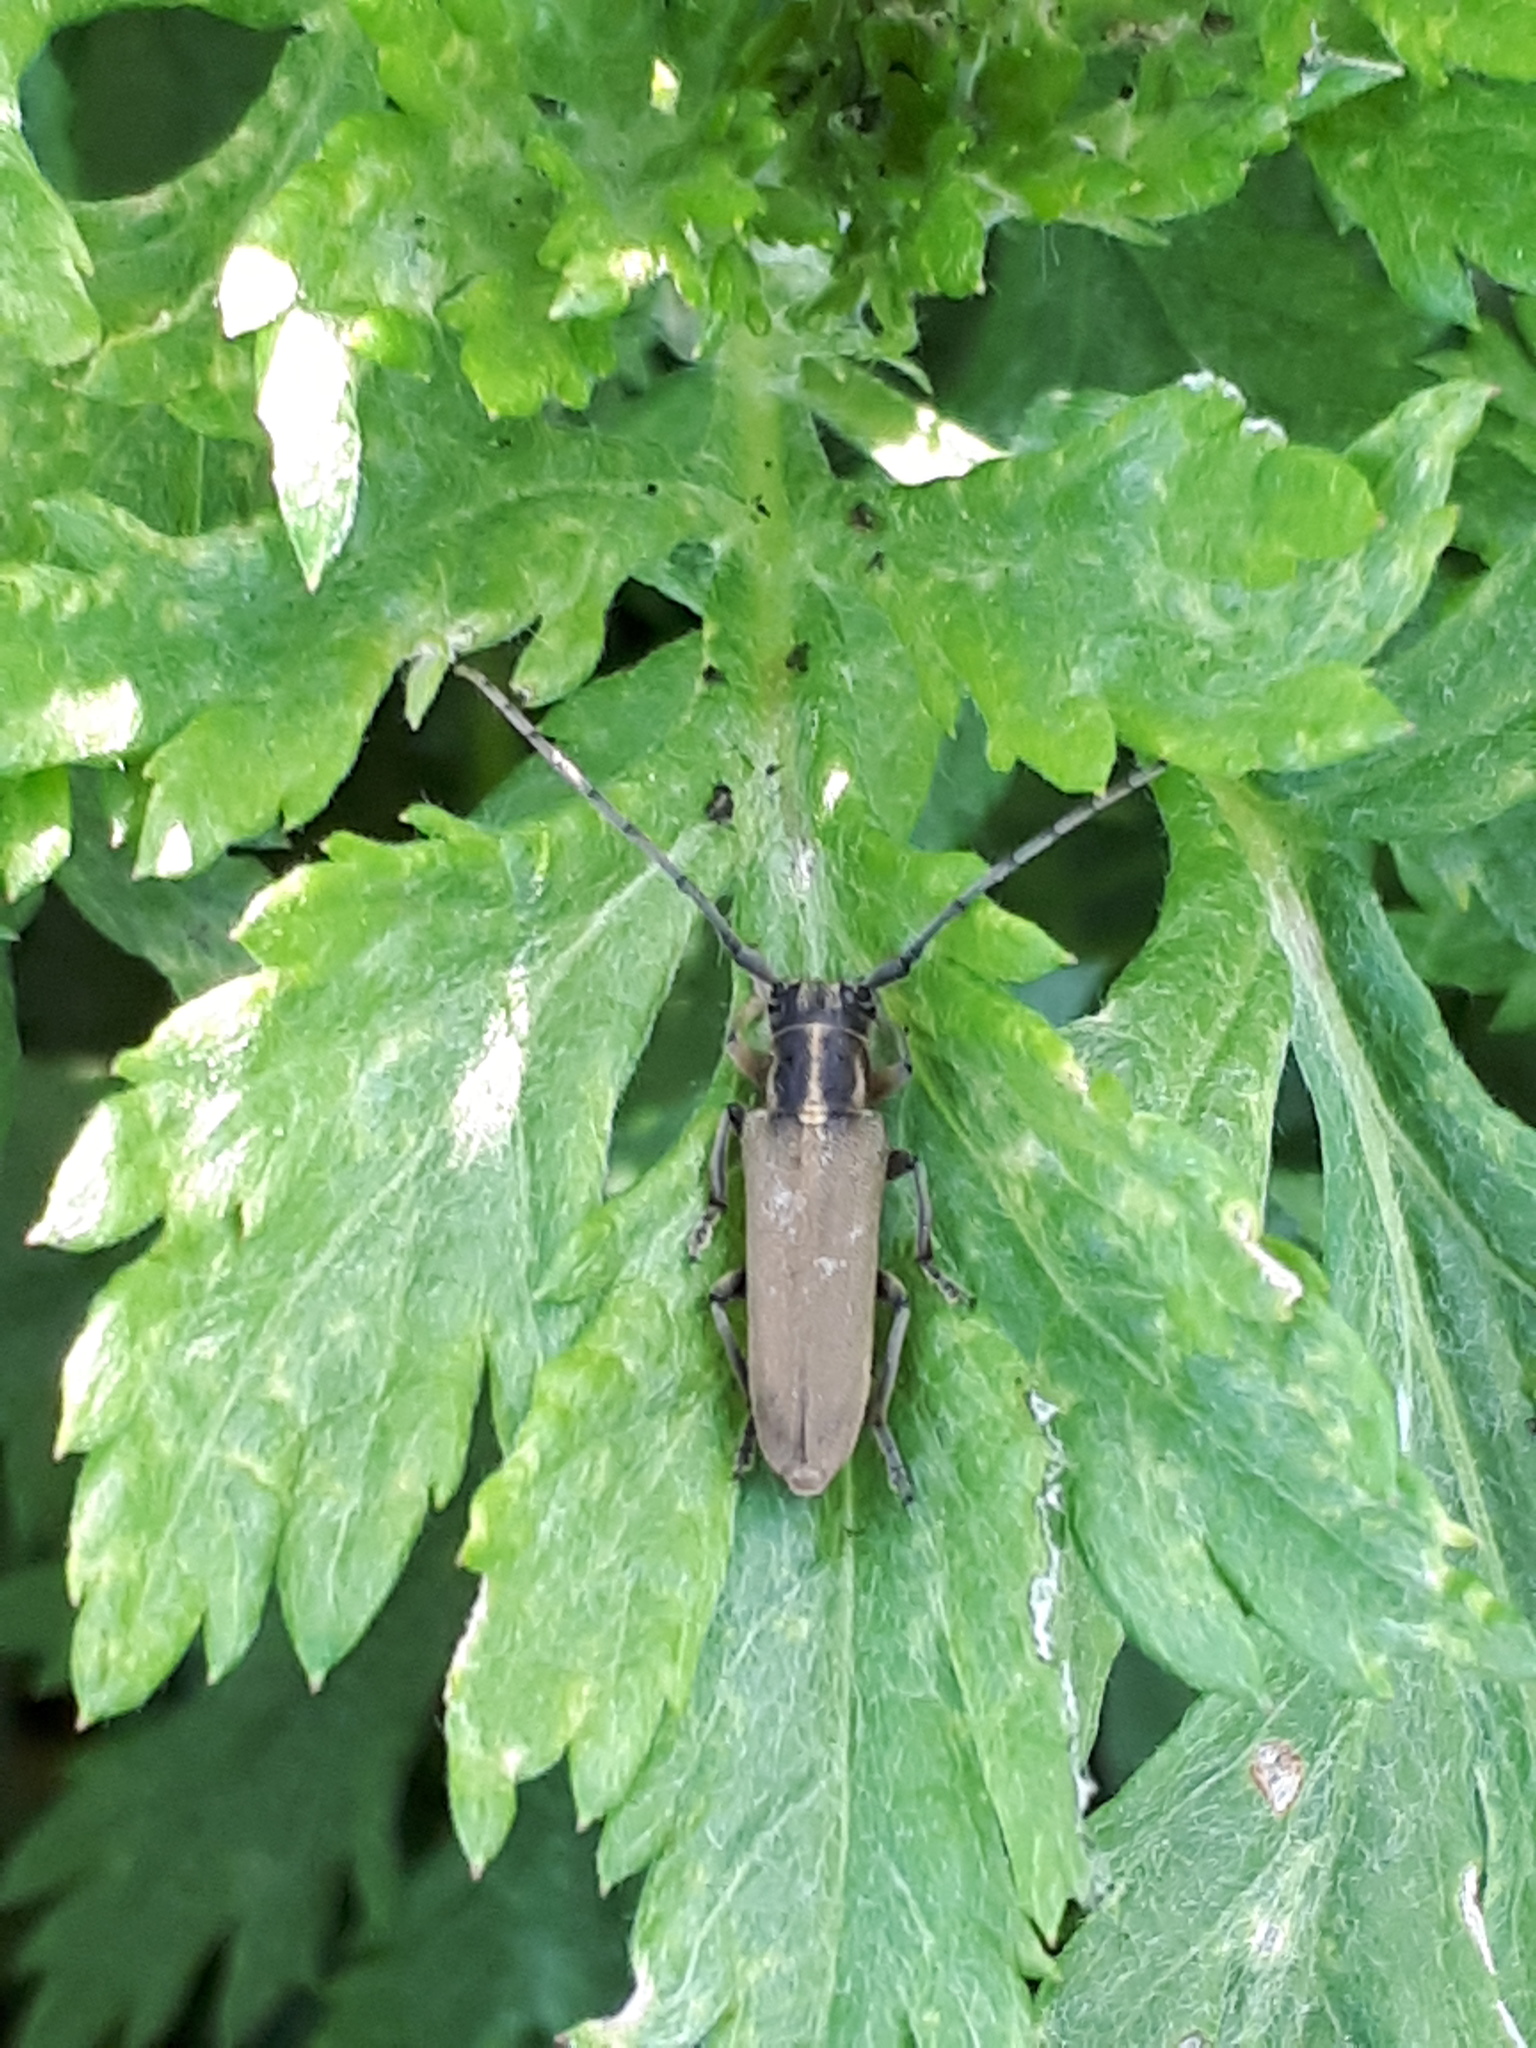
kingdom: Animalia
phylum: Arthropoda
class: Insecta
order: Coleoptera
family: Cerambycidae
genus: Phytoecia
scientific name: Phytoecia nigricornis
